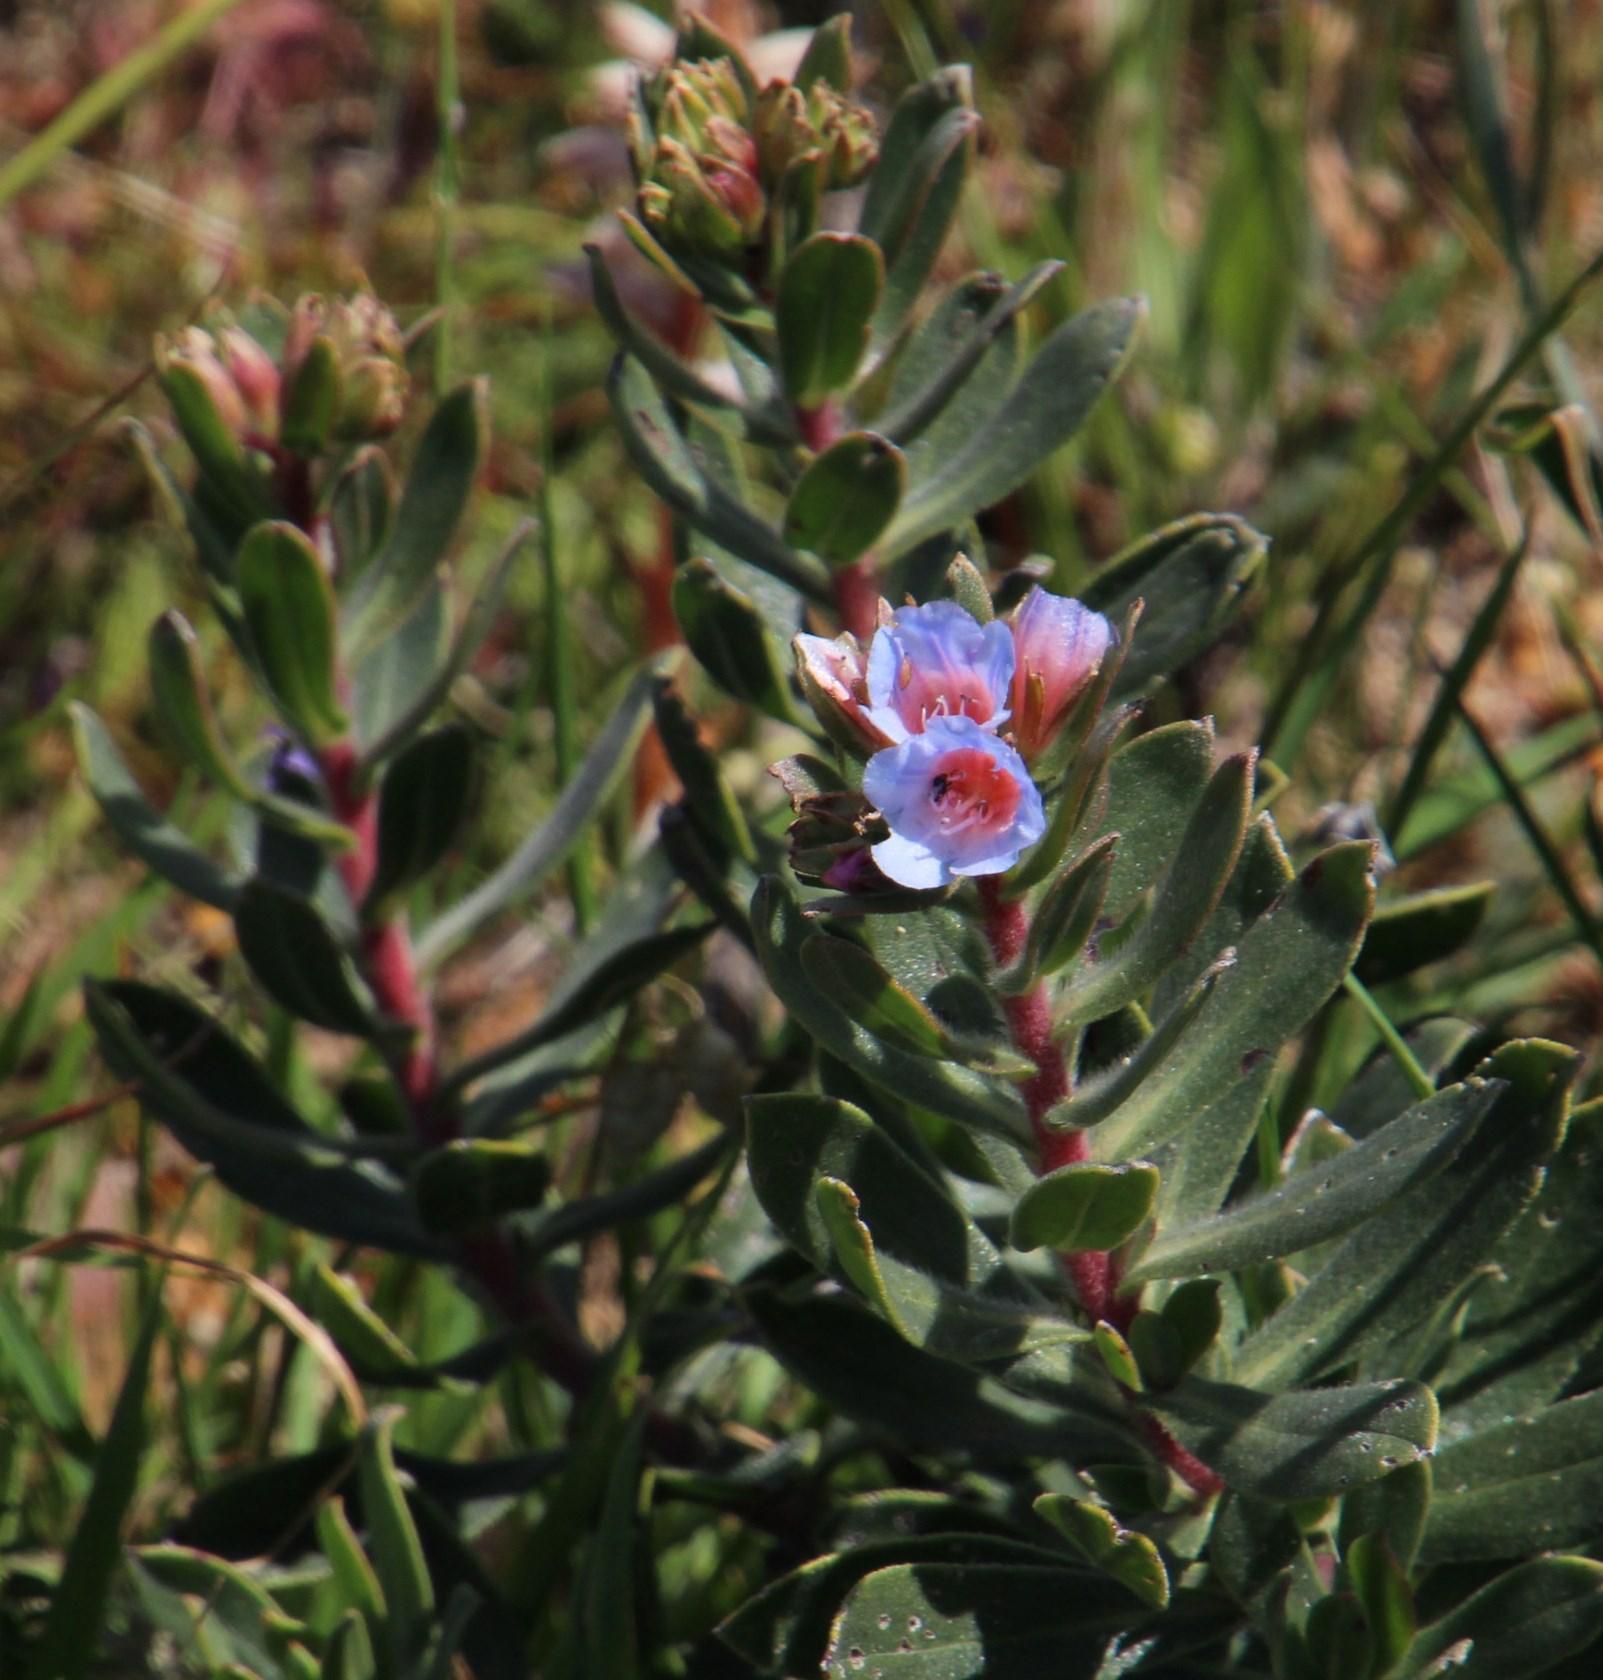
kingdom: Plantae
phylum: Tracheophyta
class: Magnoliopsida
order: Boraginales
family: Boraginaceae
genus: Lobostemon
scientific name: Lobostemon fruticosus
